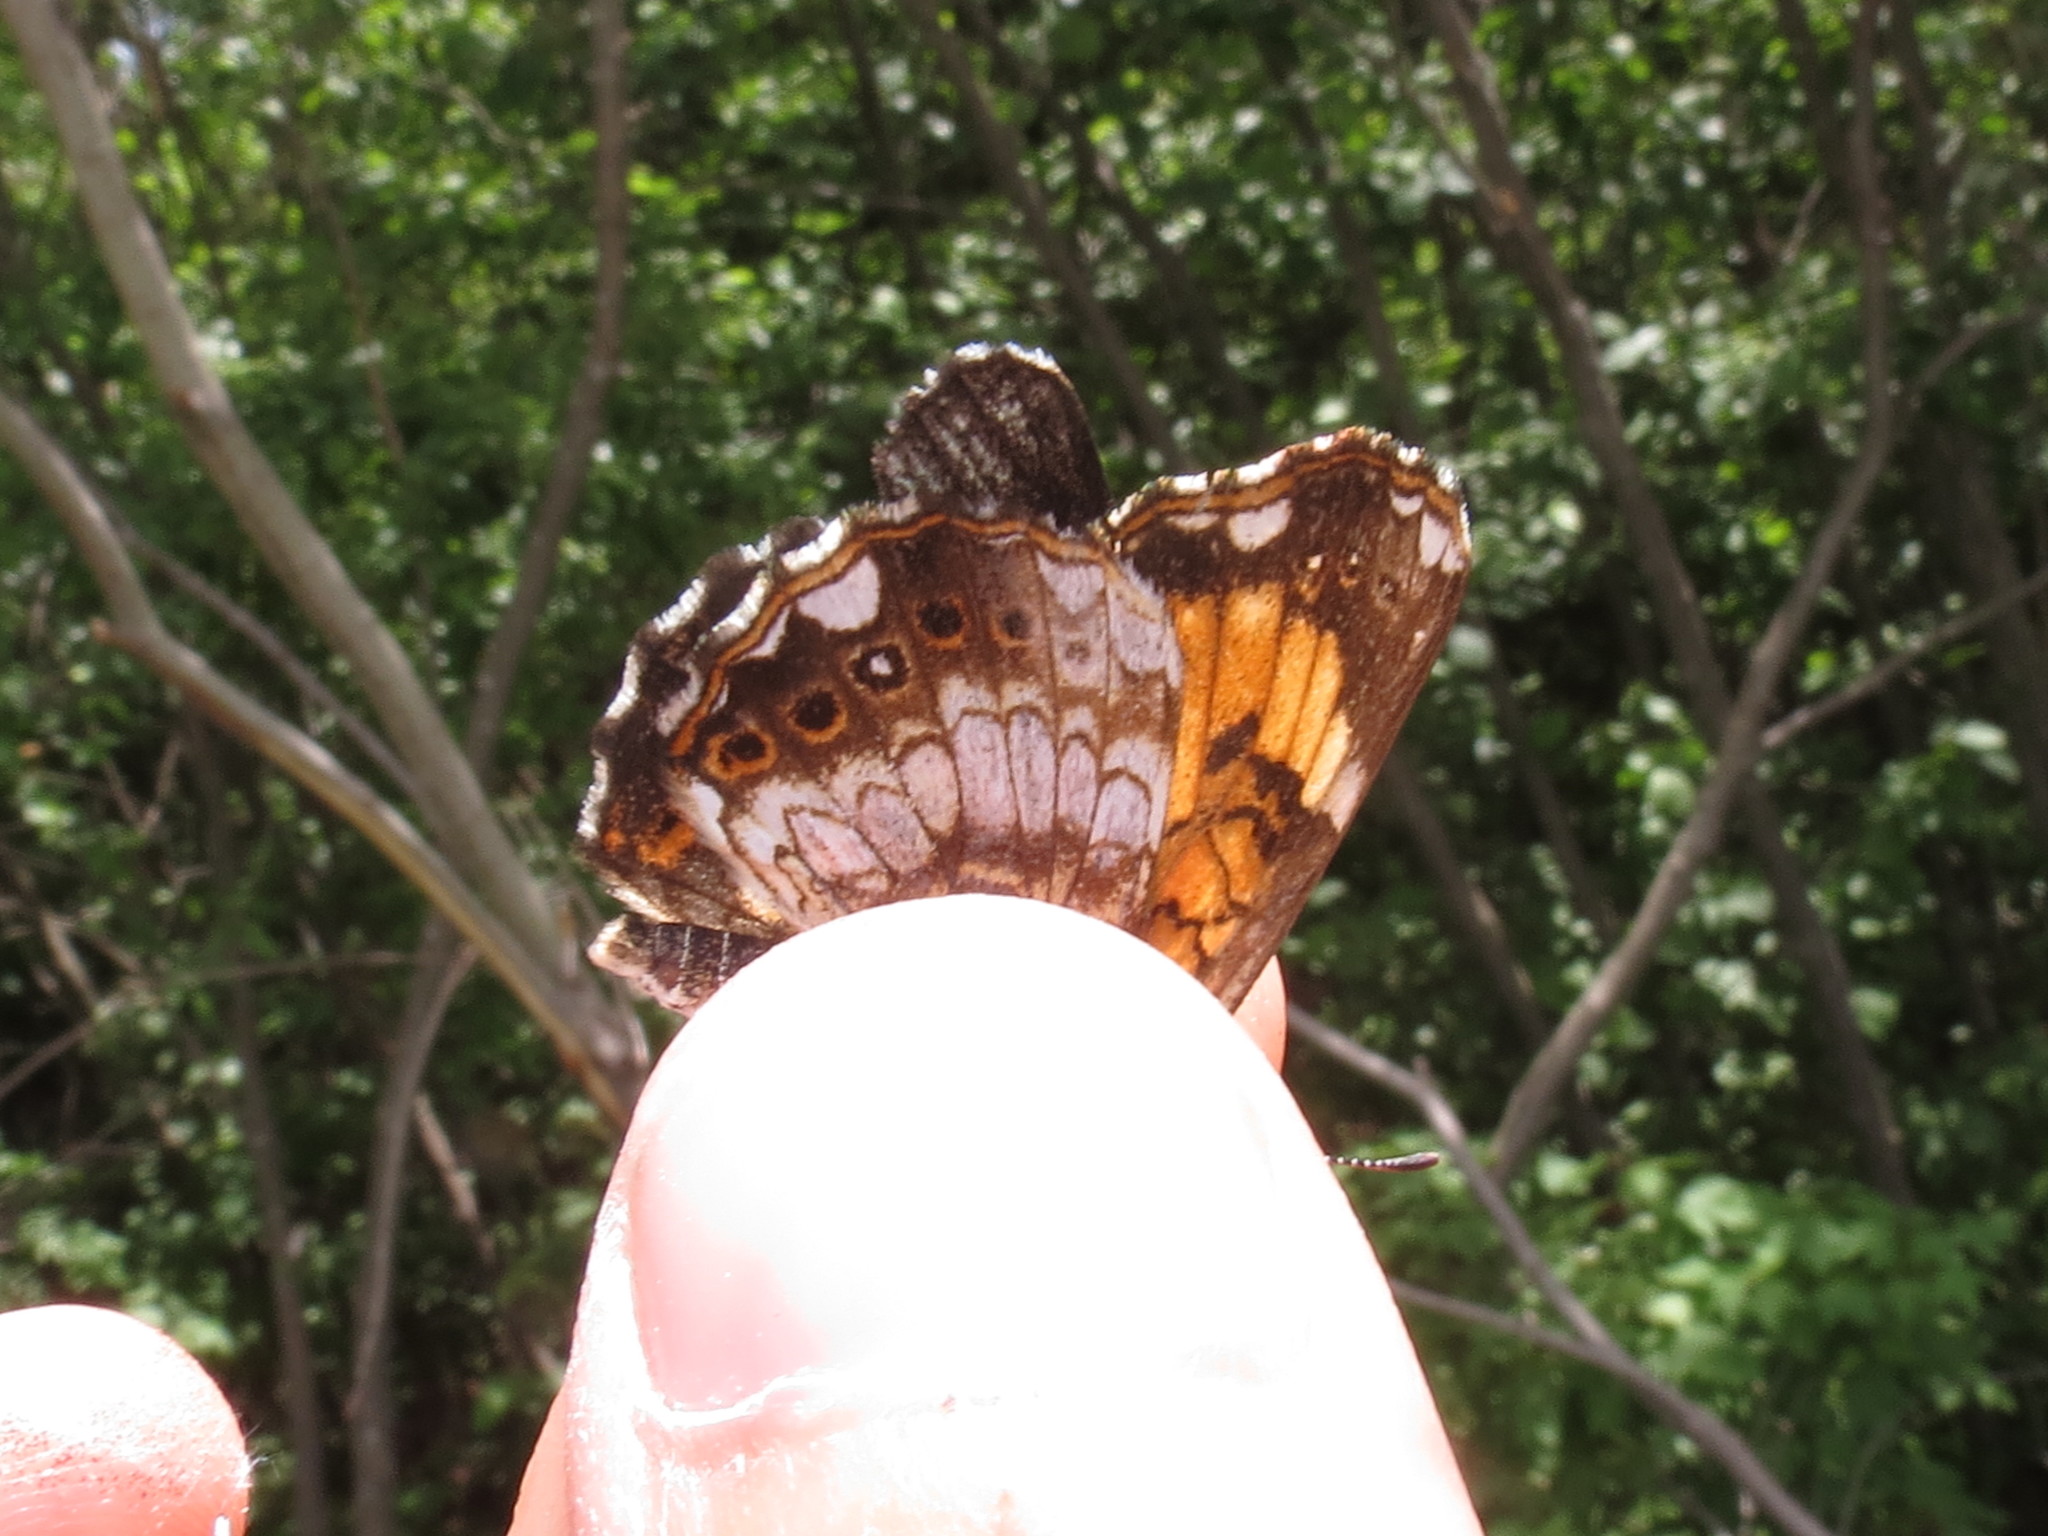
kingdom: Animalia
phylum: Arthropoda
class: Insecta
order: Lepidoptera
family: Nymphalidae
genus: Chlosyne
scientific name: Chlosyne nycteis
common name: Silvery checkerspot
